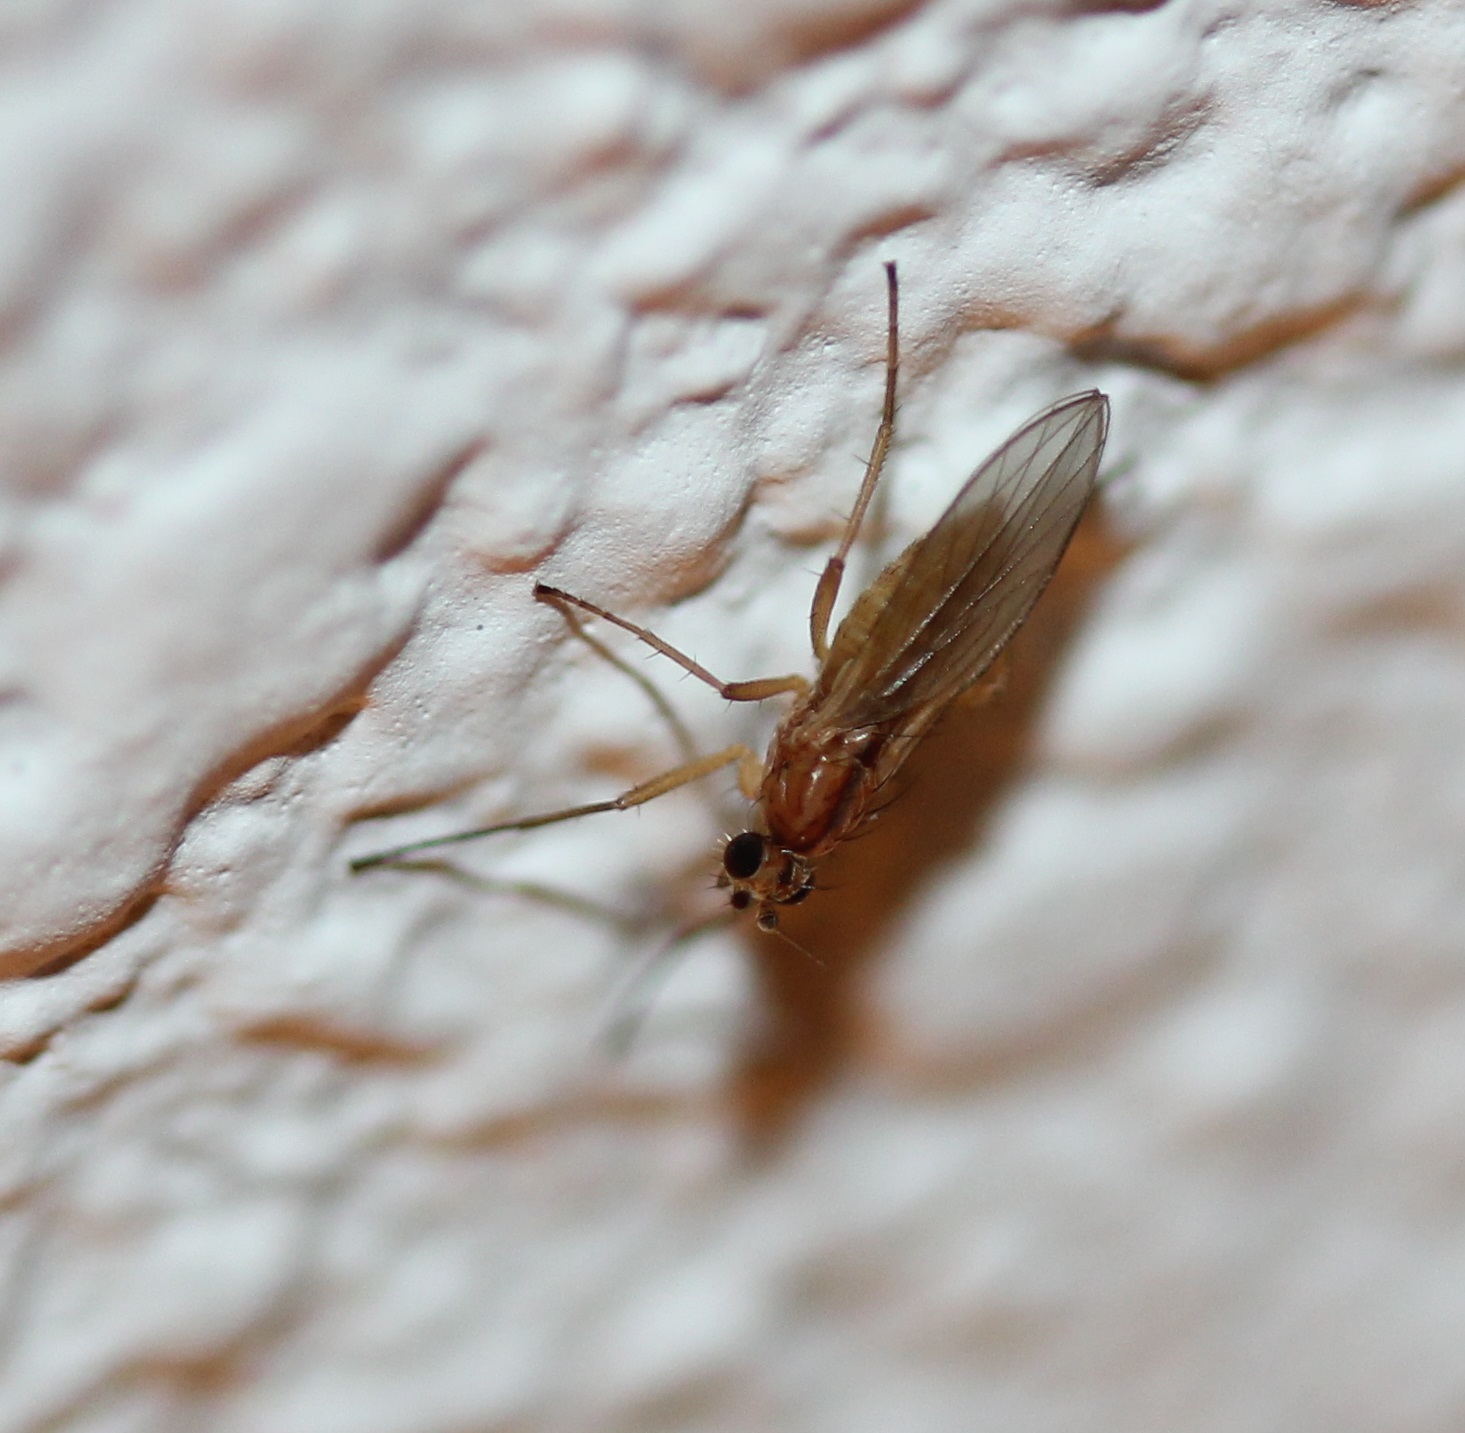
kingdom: Animalia
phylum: Arthropoda
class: Insecta
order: Diptera
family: Lonchopteridae
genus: Lonchoptera
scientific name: Lonchoptera bifurcata
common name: Spear-winged fly
